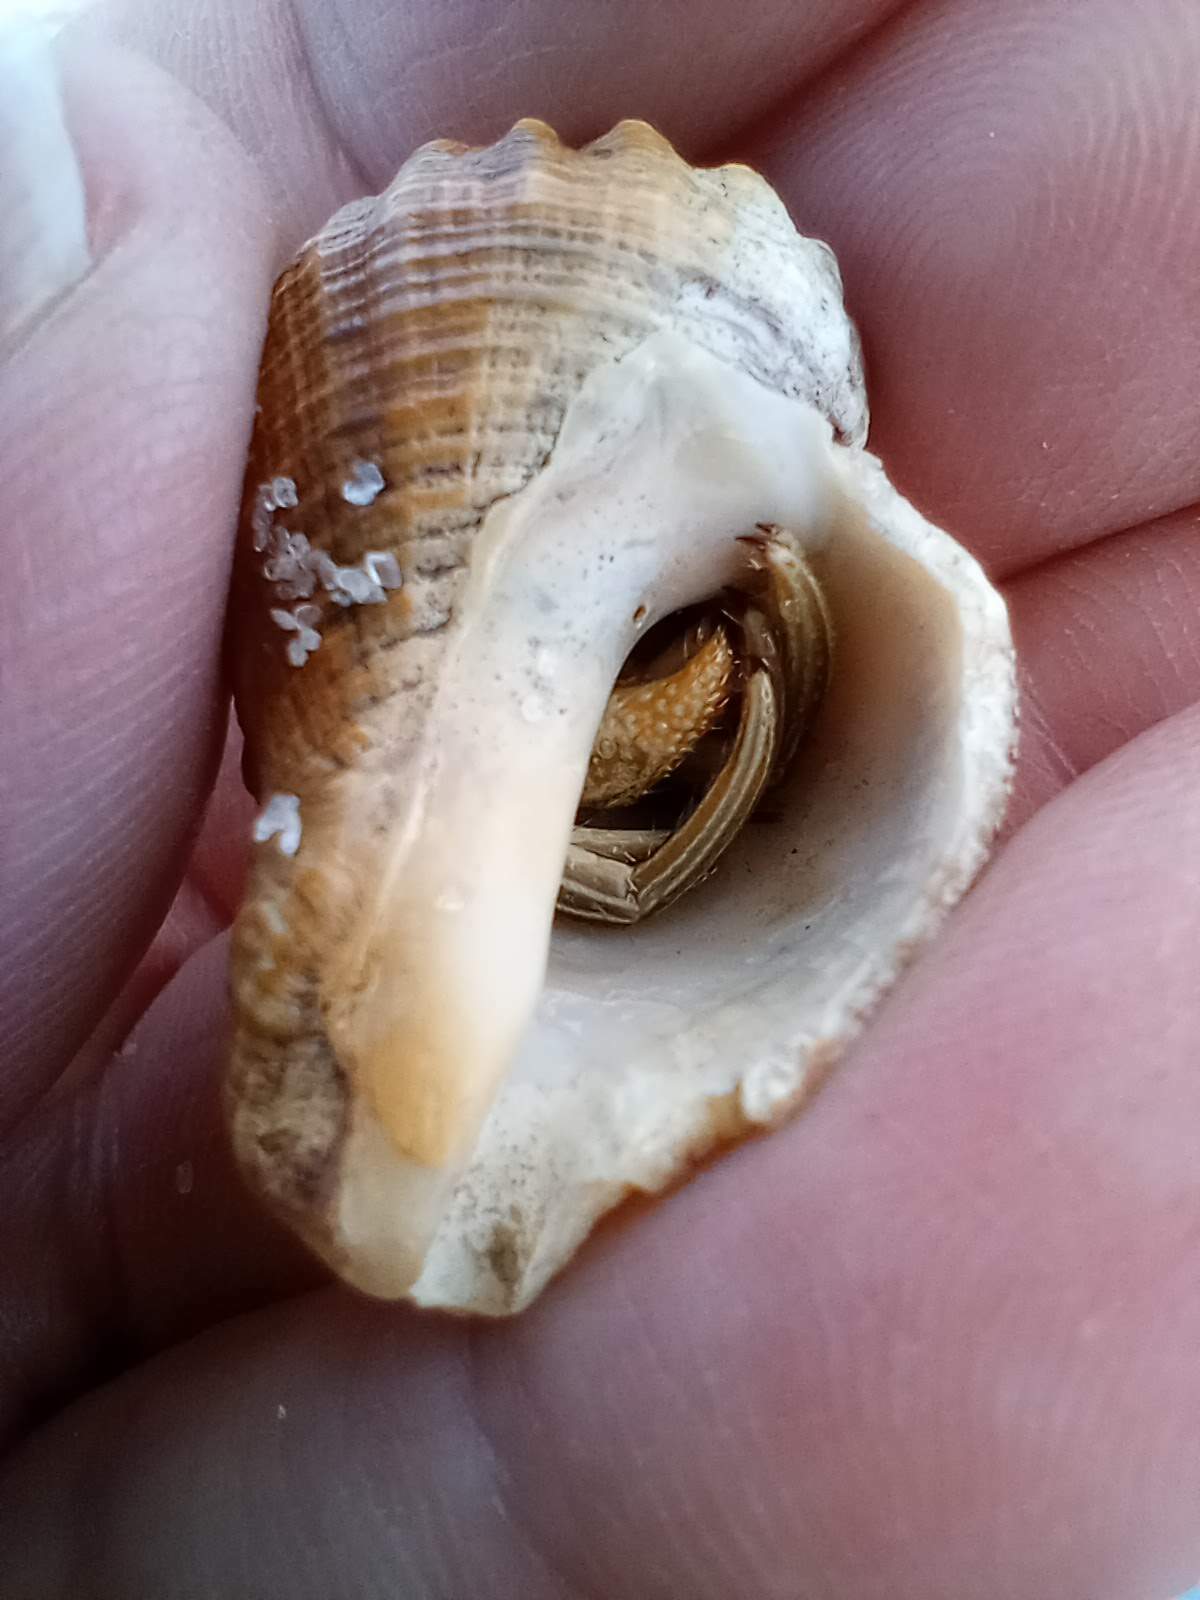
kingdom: Animalia
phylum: Arthropoda
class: Malacostraca
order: Decapoda
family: Diogenidae
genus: Clibanarius
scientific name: Clibanarius vittatus
